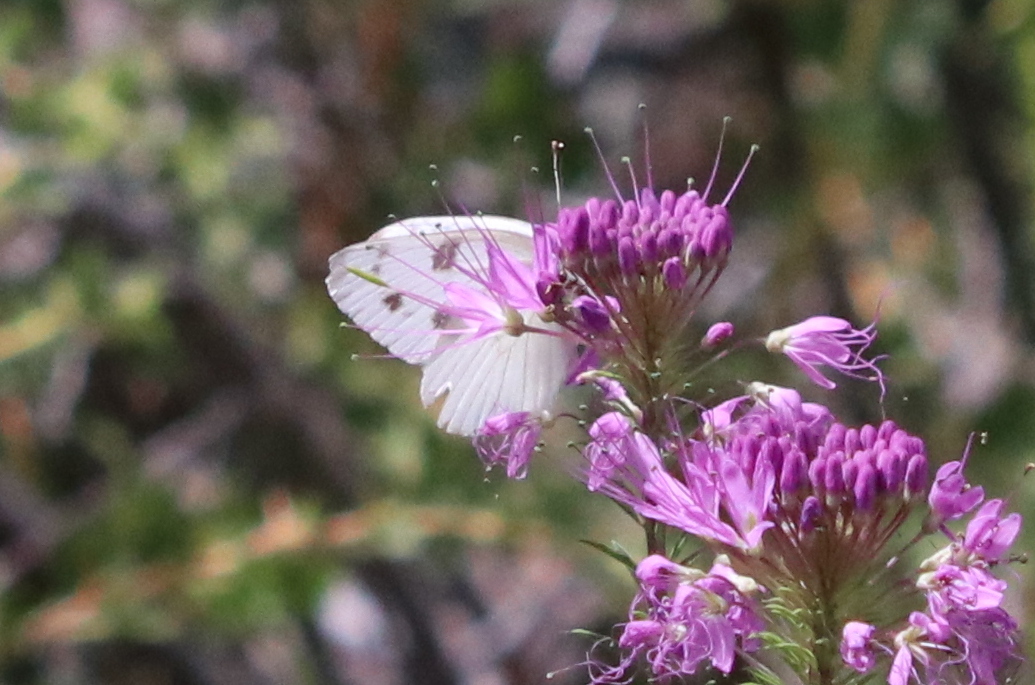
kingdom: Animalia
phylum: Arthropoda
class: Insecta
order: Lepidoptera
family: Pieridae
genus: Pontia
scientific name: Pontia protodice
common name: Checkered white
